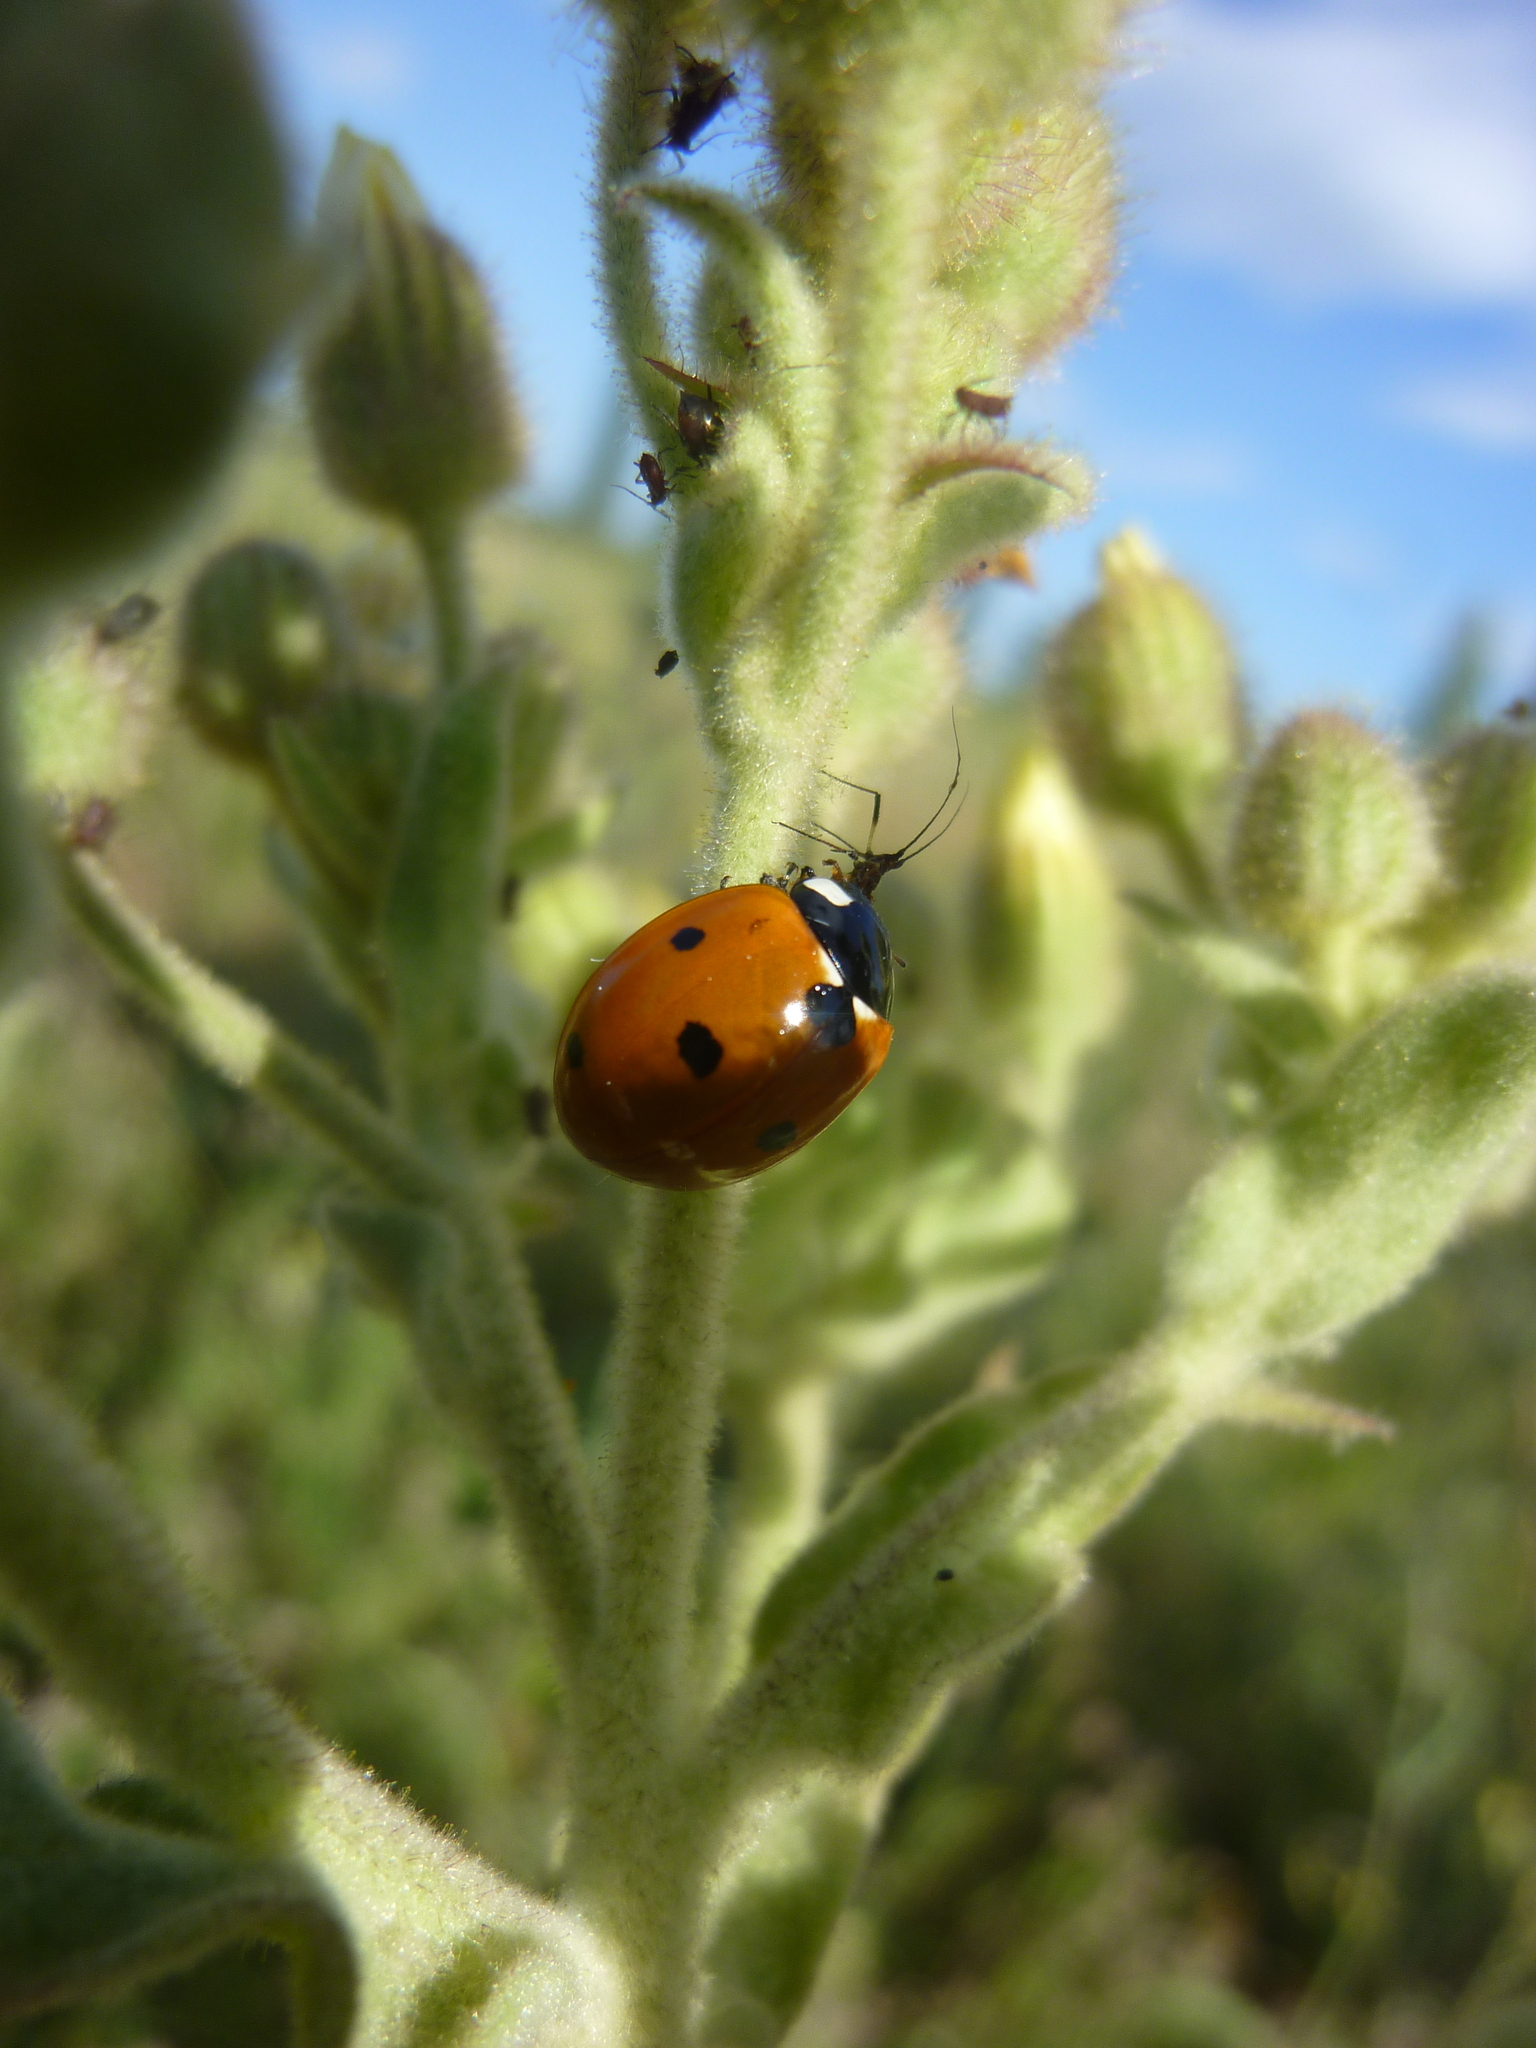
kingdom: Animalia
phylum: Arthropoda
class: Insecta
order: Coleoptera
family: Coccinellidae
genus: Coccinella
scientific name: Coccinella septempunctata
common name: Sevenspotted lady beetle
